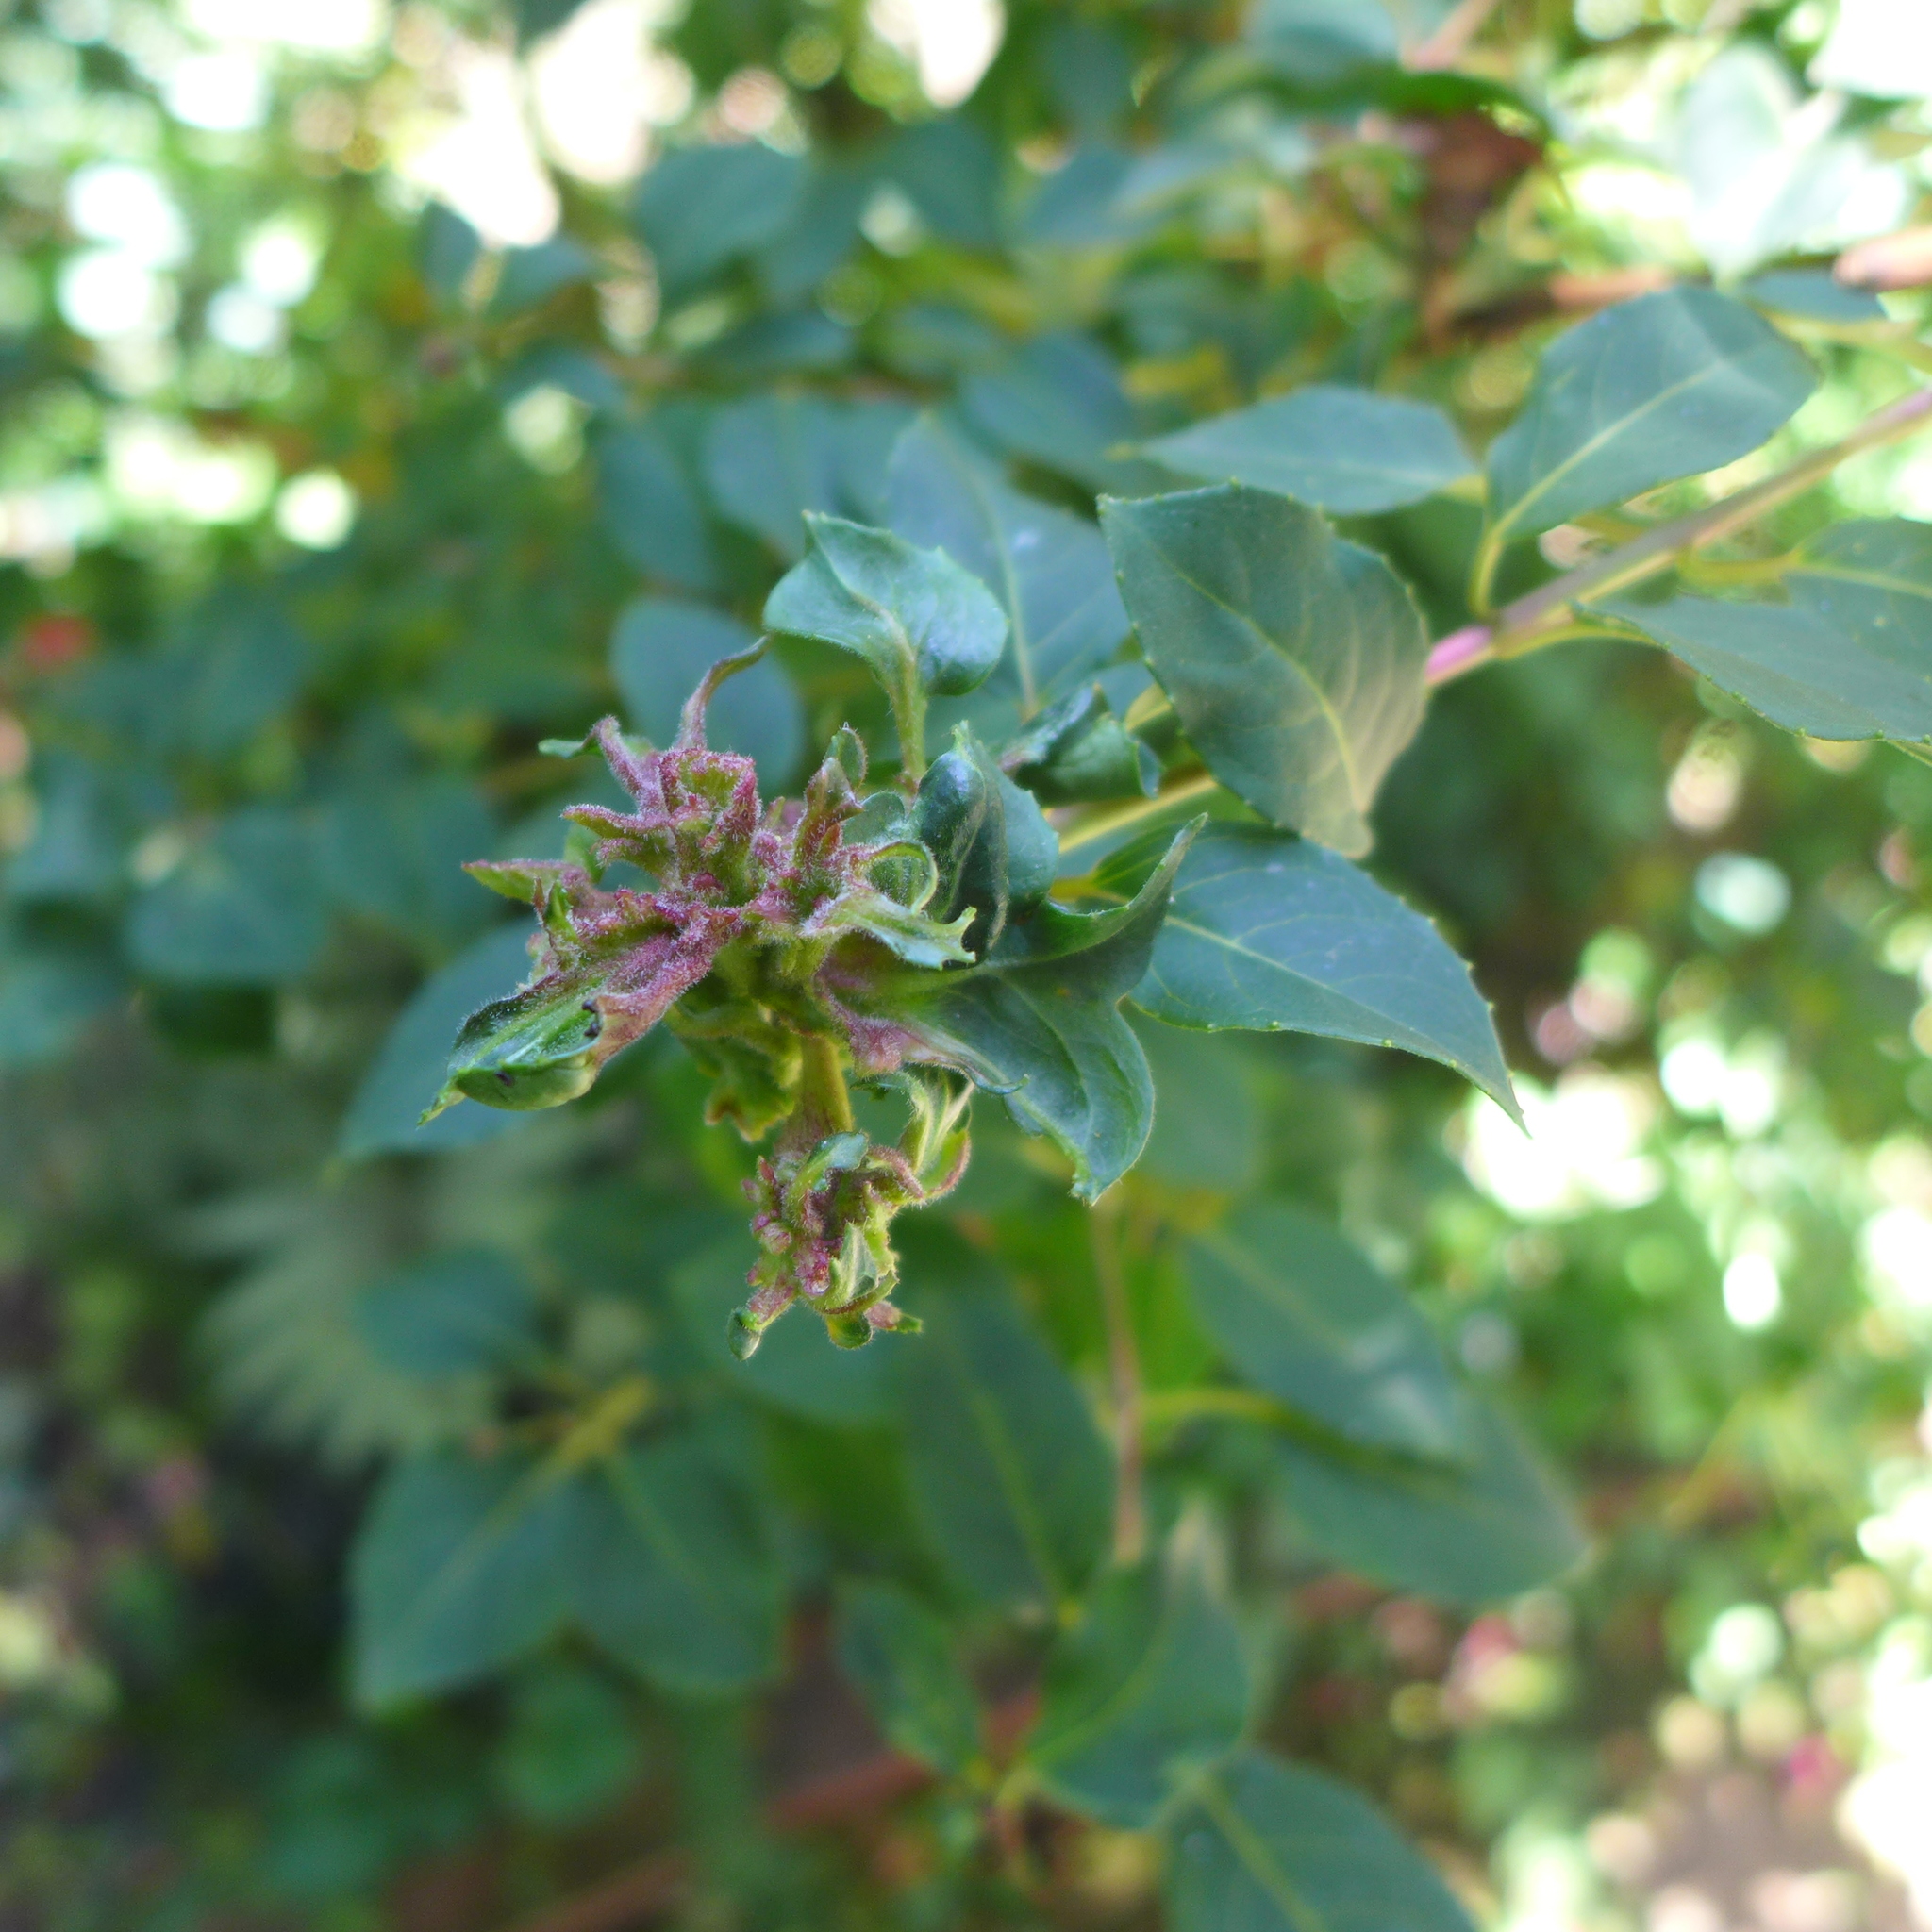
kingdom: Animalia
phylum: Arthropoda
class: Arachnida
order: Trombidiformes
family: Eriophyidae
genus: Aculops
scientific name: Aculops fuchsiae
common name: Fuchsia gall mite
